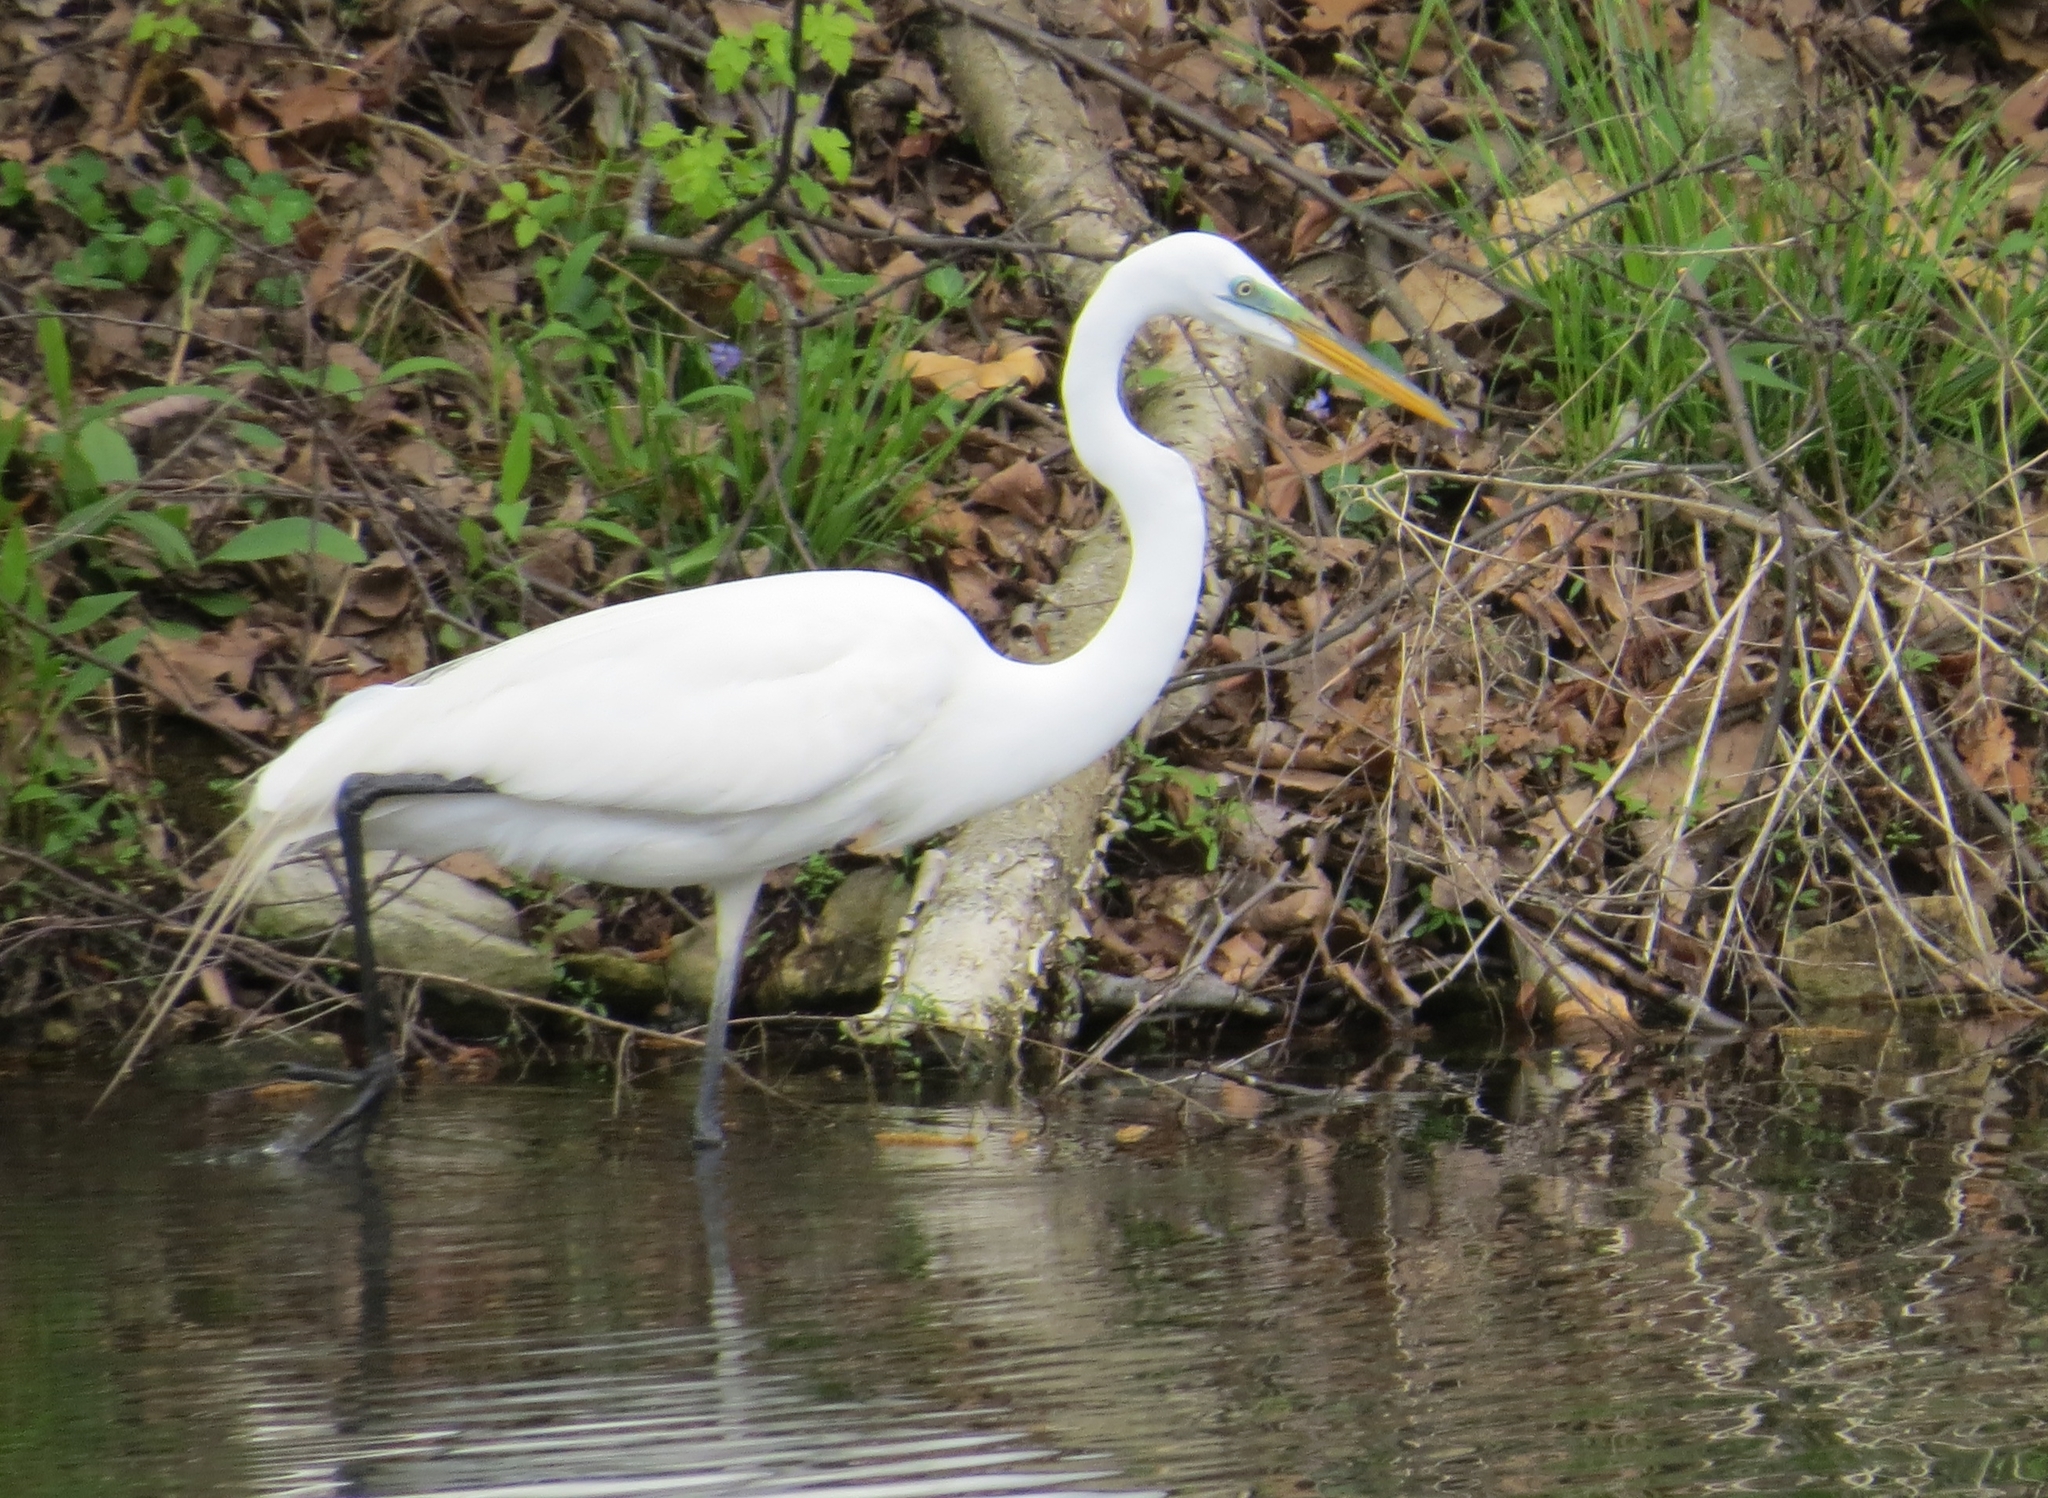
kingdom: Animalia
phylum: Chordata
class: Aves
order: Pelecaniformes
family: Ardeidae
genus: Ardea
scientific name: Ardea alba
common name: Great egret
